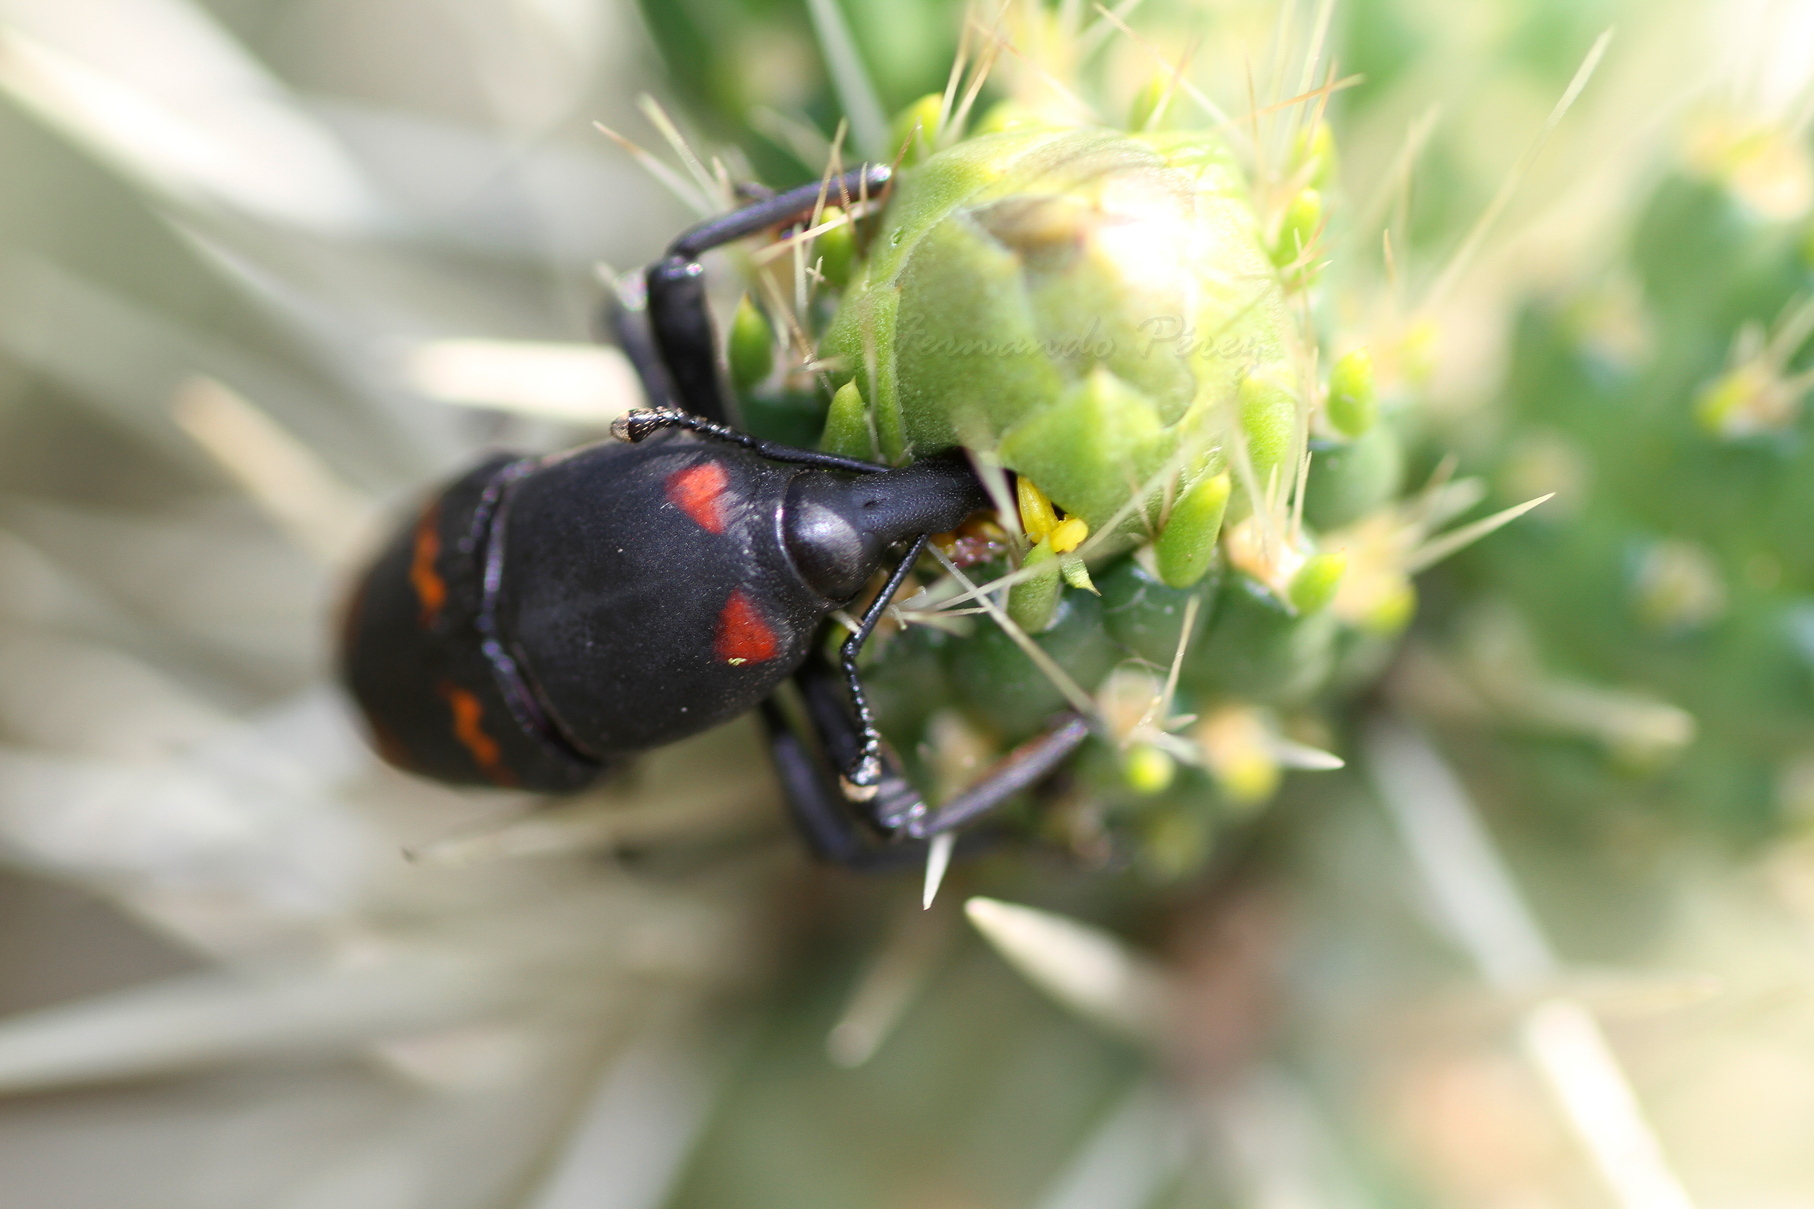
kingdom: Animalia
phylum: Arthropoda
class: Insecta
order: Coleoptera
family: Dryophthoridae
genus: Cactophagus
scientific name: Cactophagus spinolae
